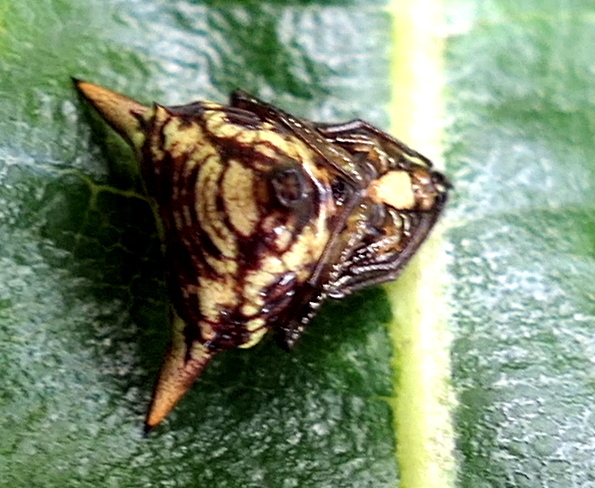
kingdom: Animalia
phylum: Arthropoda
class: Arachnida
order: Araneae
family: Araneidae
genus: Micrathena
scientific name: Micrathena evansi
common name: Orb weavers
